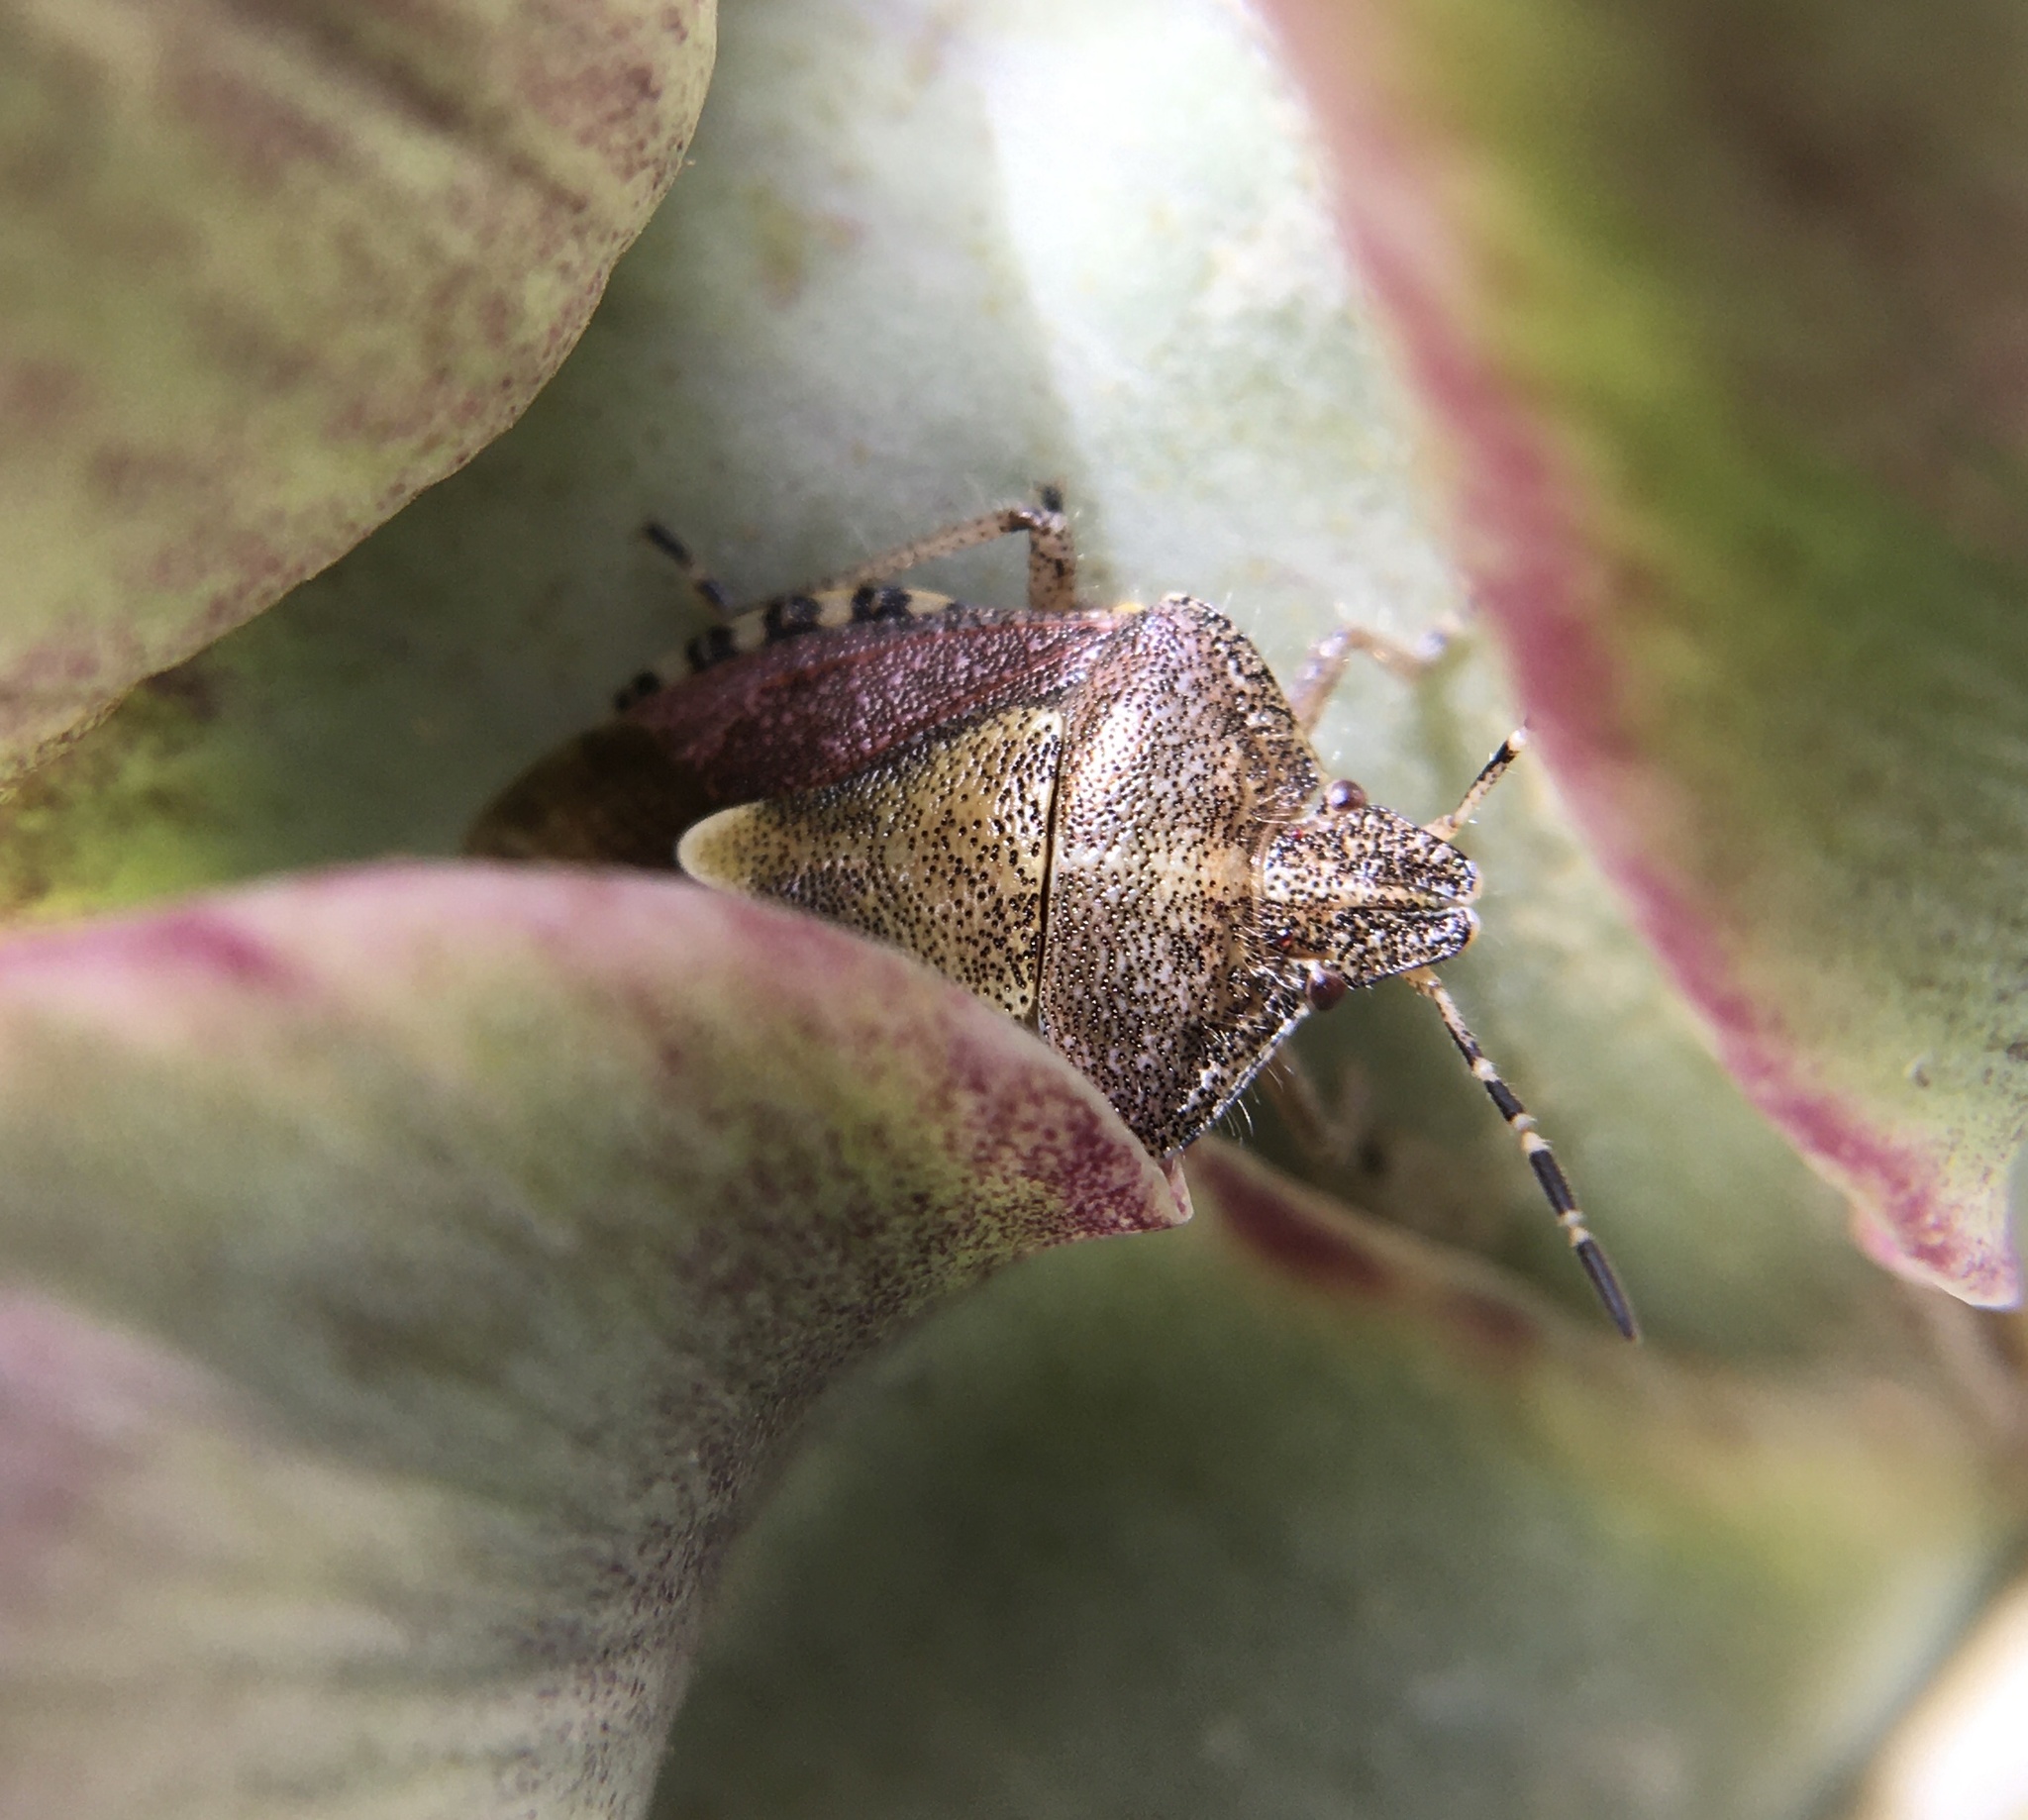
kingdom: Animalia
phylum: Arthropoda
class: Insecta
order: Hemiptera
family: Pentatomidae
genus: Dolycoris
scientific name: Dolycoris baccarum
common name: Sloe bug
